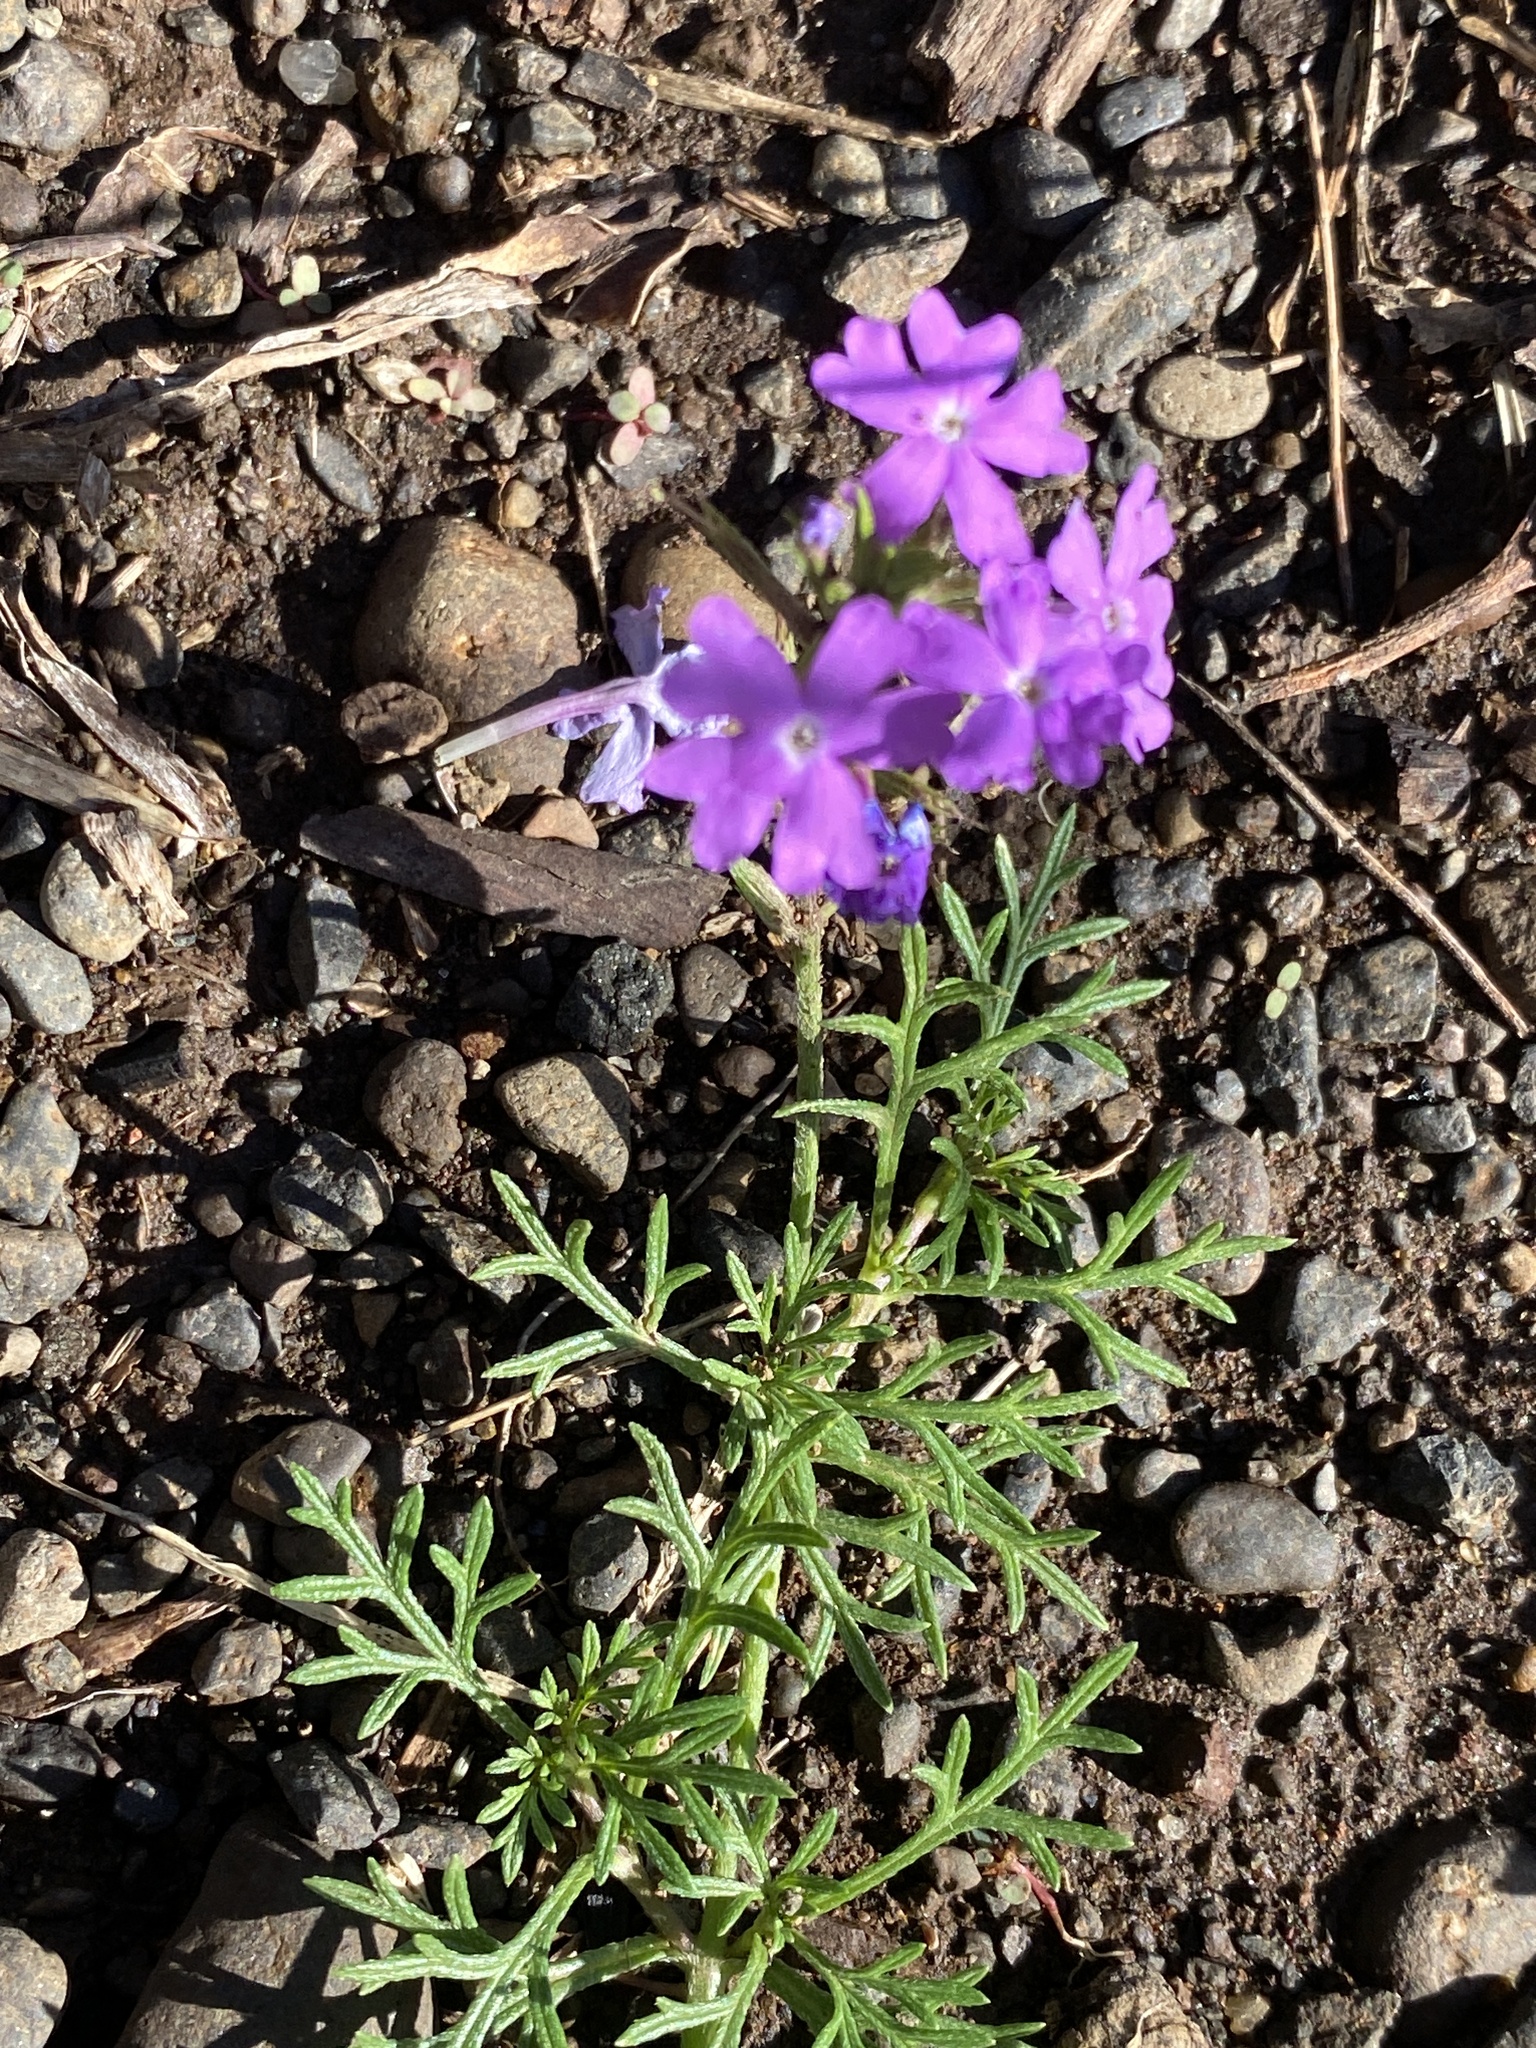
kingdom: Plantae
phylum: Tracheophyta
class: Magnoliopsida
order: Lamiales
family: Verbenaceae
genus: Verbena
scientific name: Verbena aristigera
